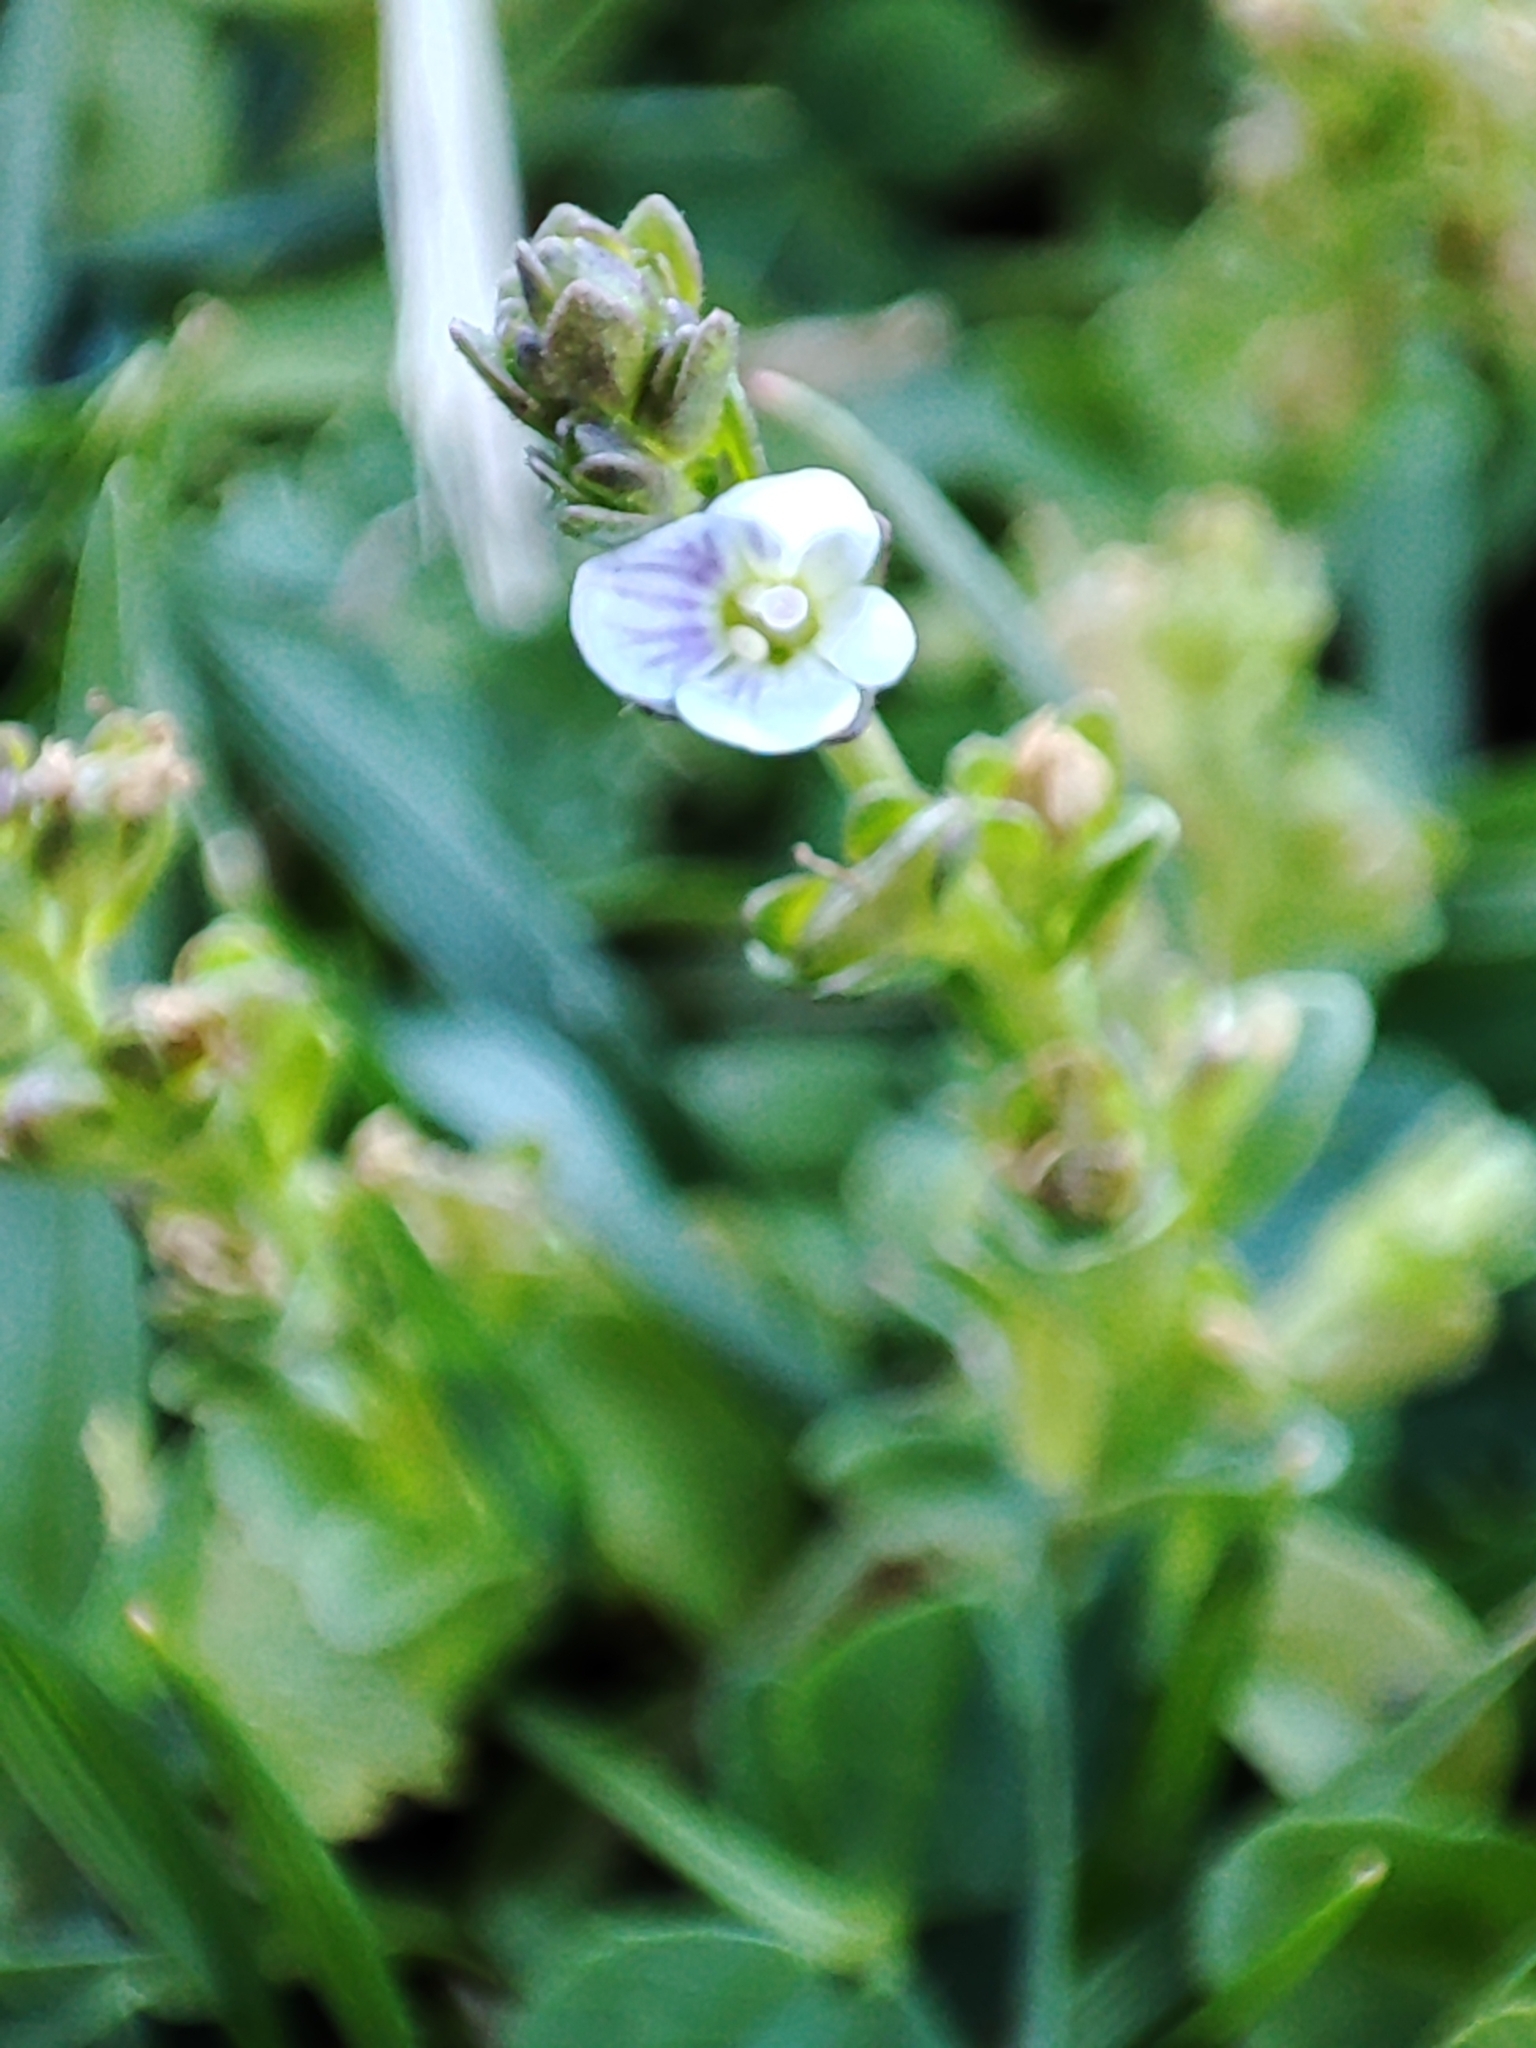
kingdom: Plantae
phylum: Tracheophyta
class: Magnoliopsida
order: Lamiales
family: Plantaginaceae
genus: Veronica
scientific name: Veronica serpyllifolia
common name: Thyme-leaved speedwell
